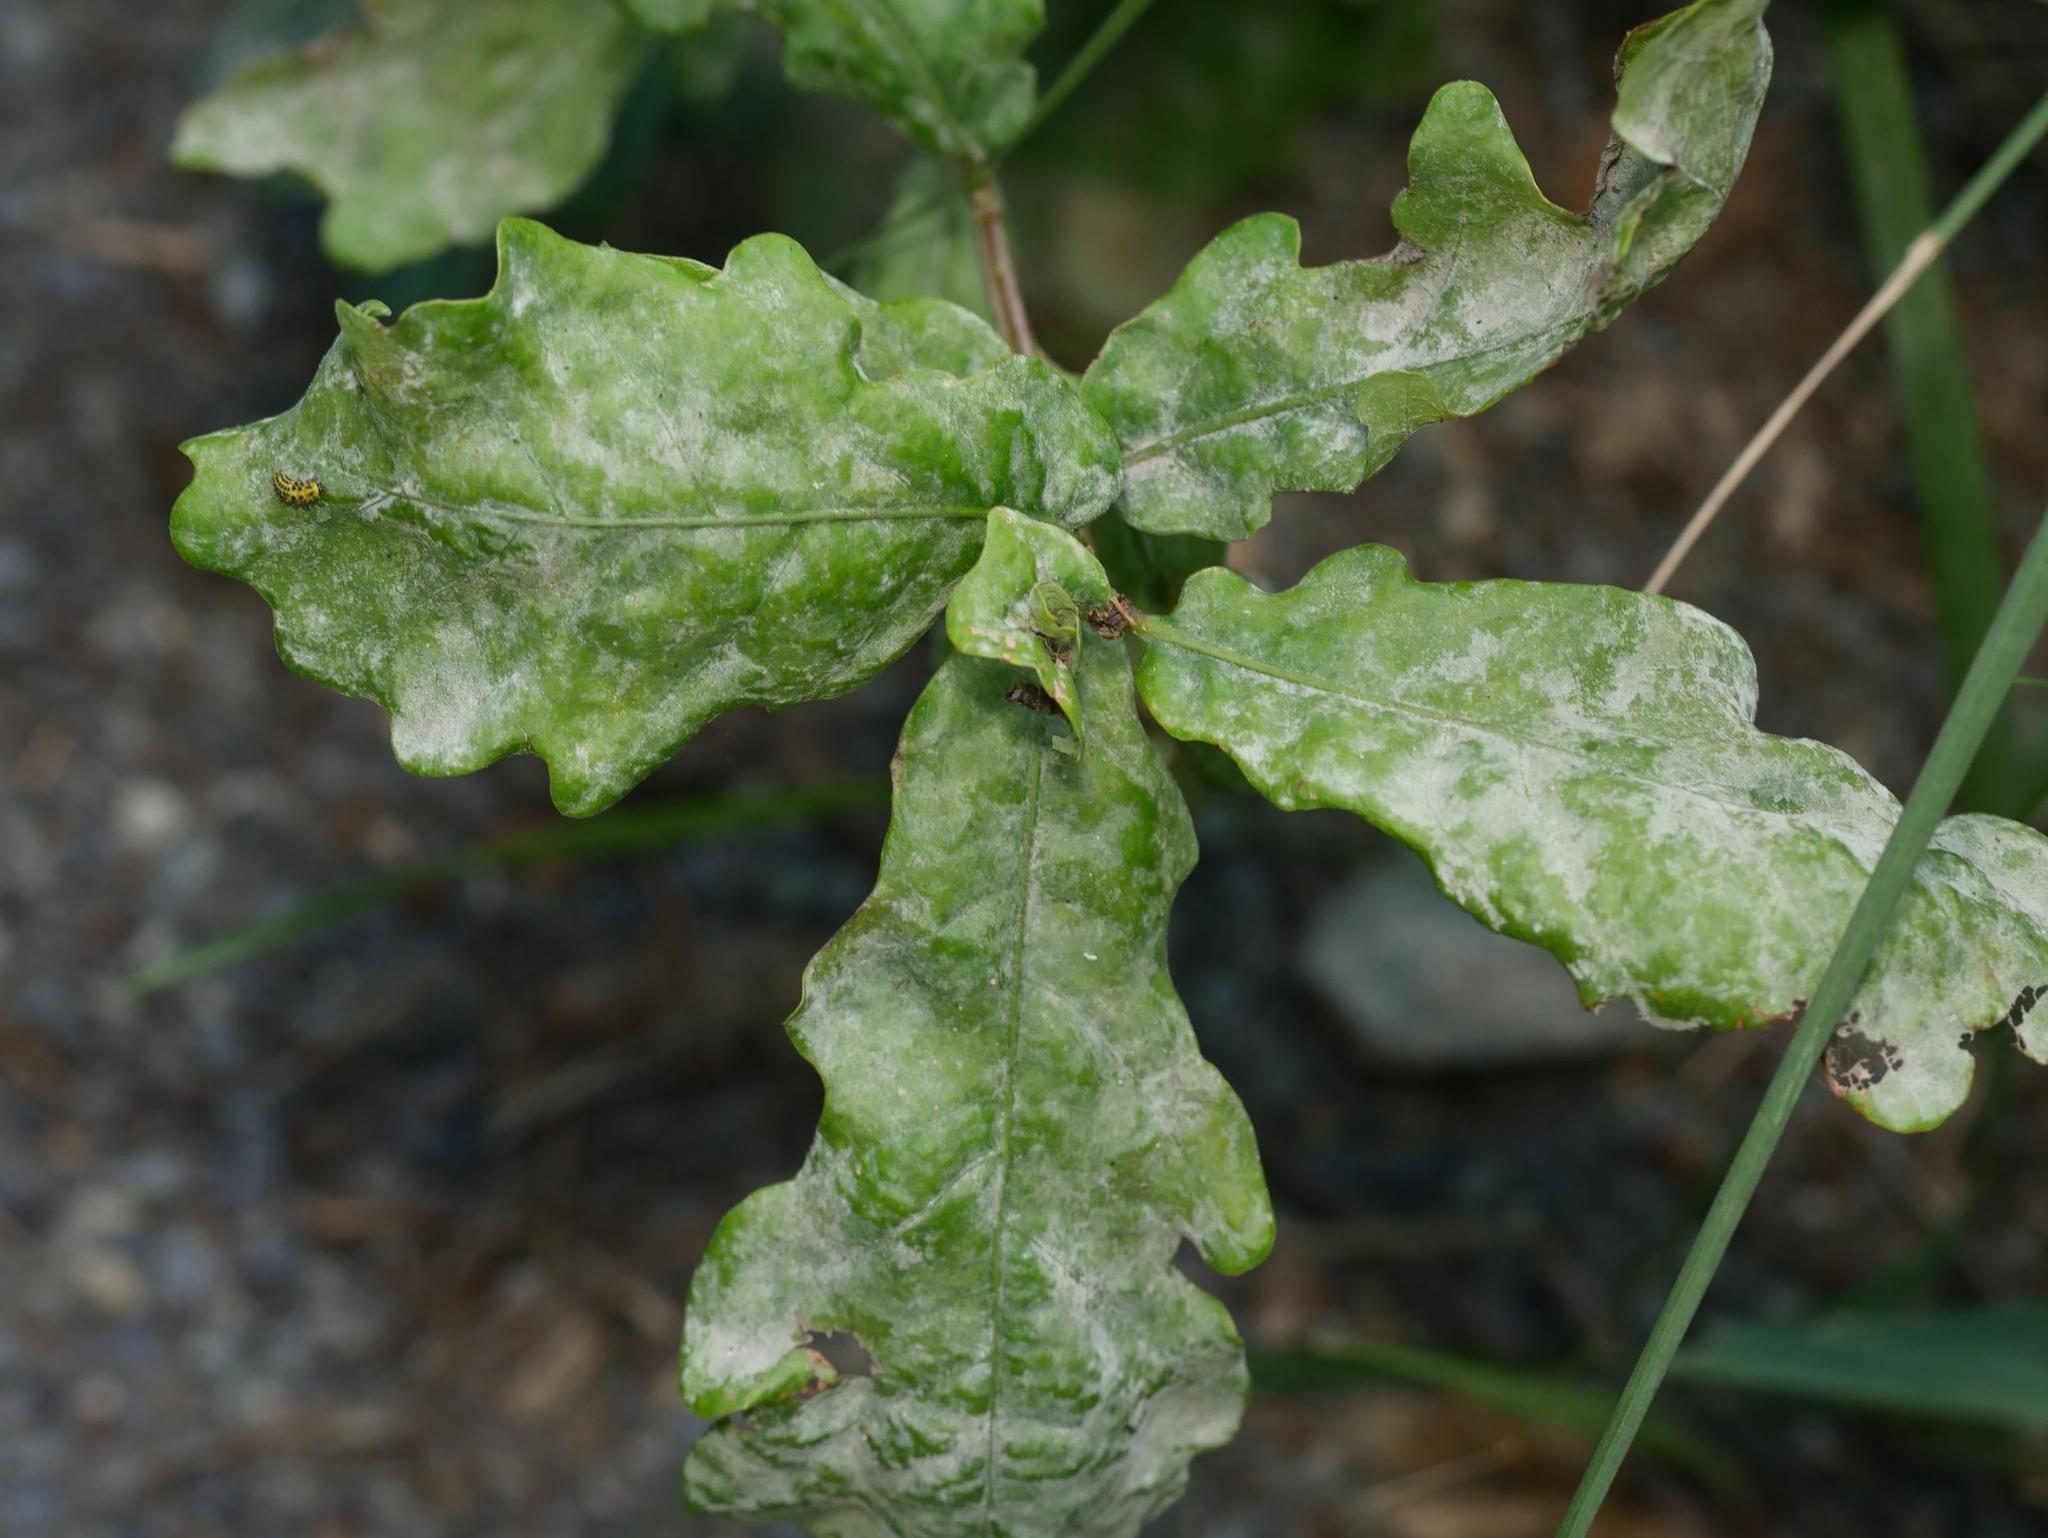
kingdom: Plantae
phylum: Tracheophyta
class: Magnoliopsida
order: Fagales
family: Fagaceae
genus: Quercus
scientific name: Quercus robur
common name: Pedunculate oak
